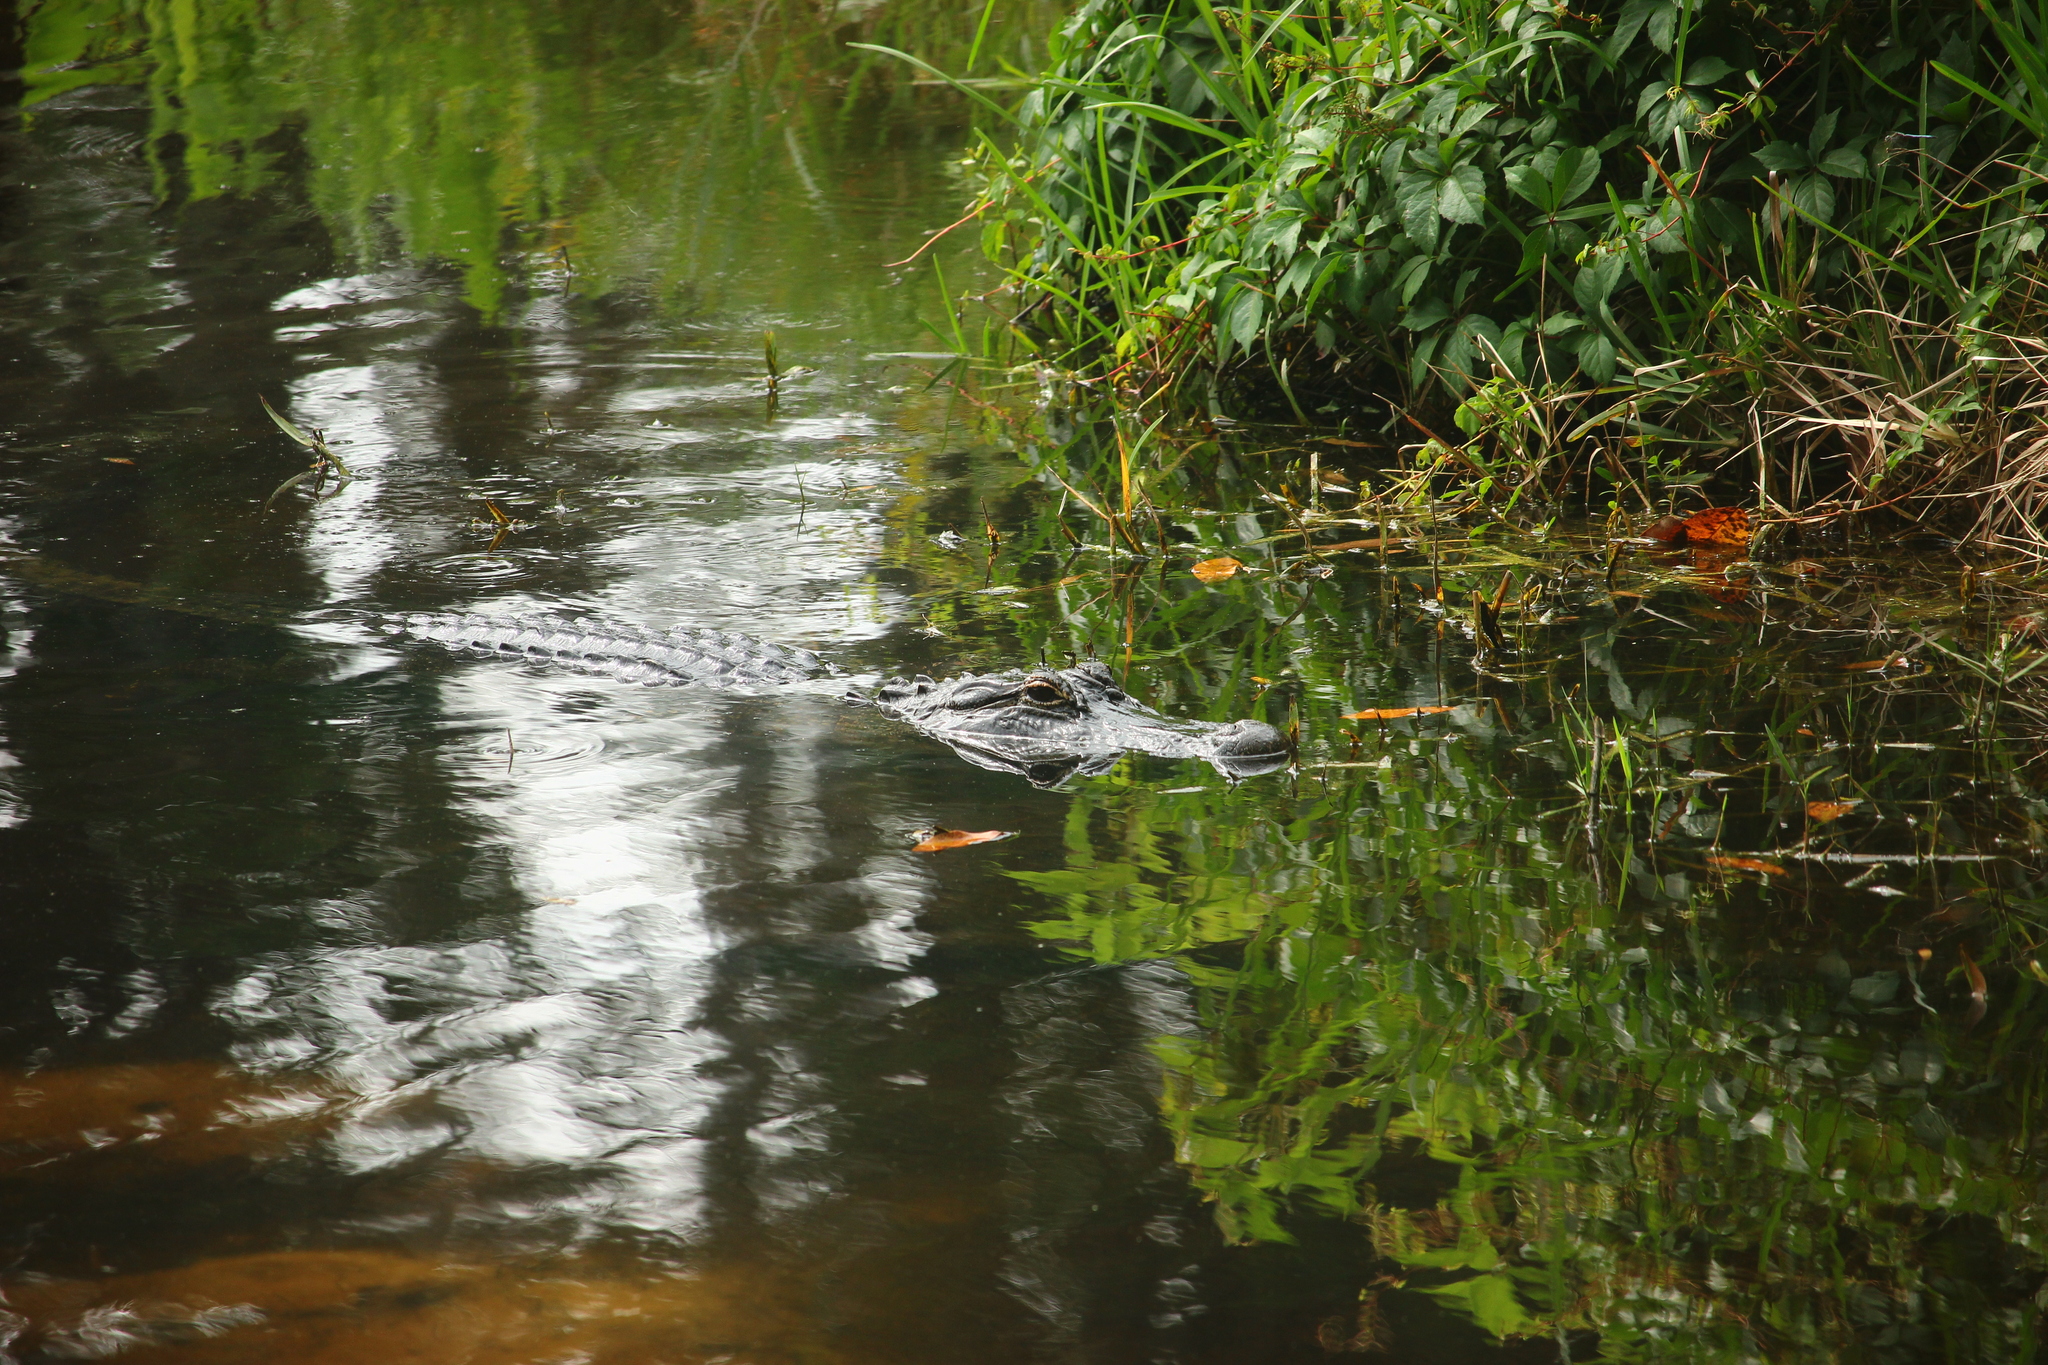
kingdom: Animalia
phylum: Chordata
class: Crocodylia
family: Alligatoridae
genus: Alligator
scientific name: Alligator mississippiensis
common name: American alligator
